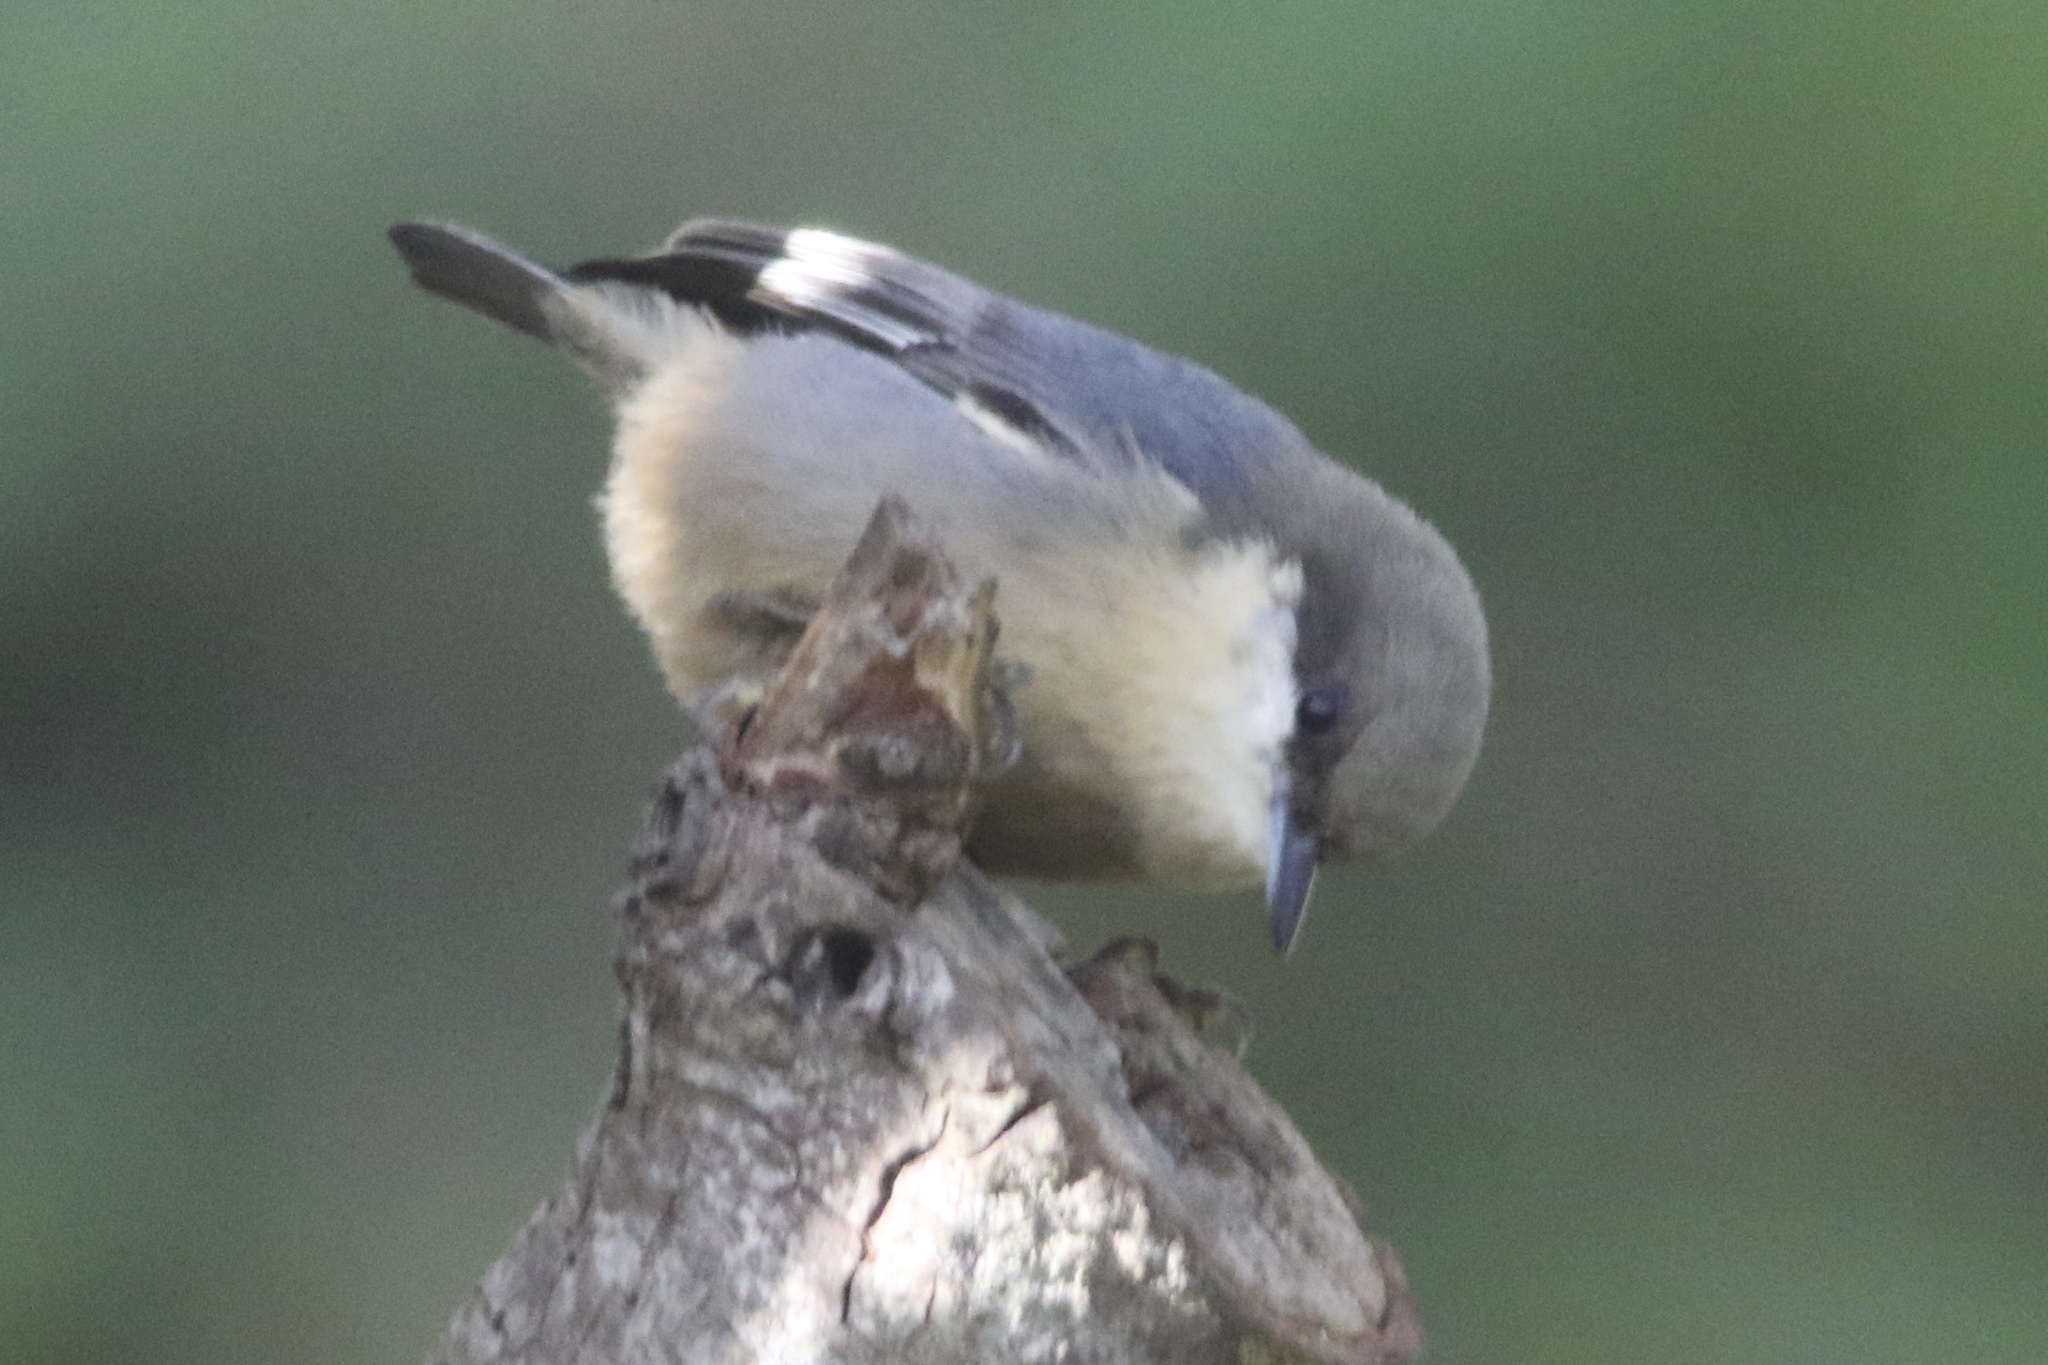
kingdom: Animalia
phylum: Chordata
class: Aves
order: Passeriformes
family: Sittidae
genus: Sitta
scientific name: Sitta pygmaea
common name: Pygmy nuthatch
